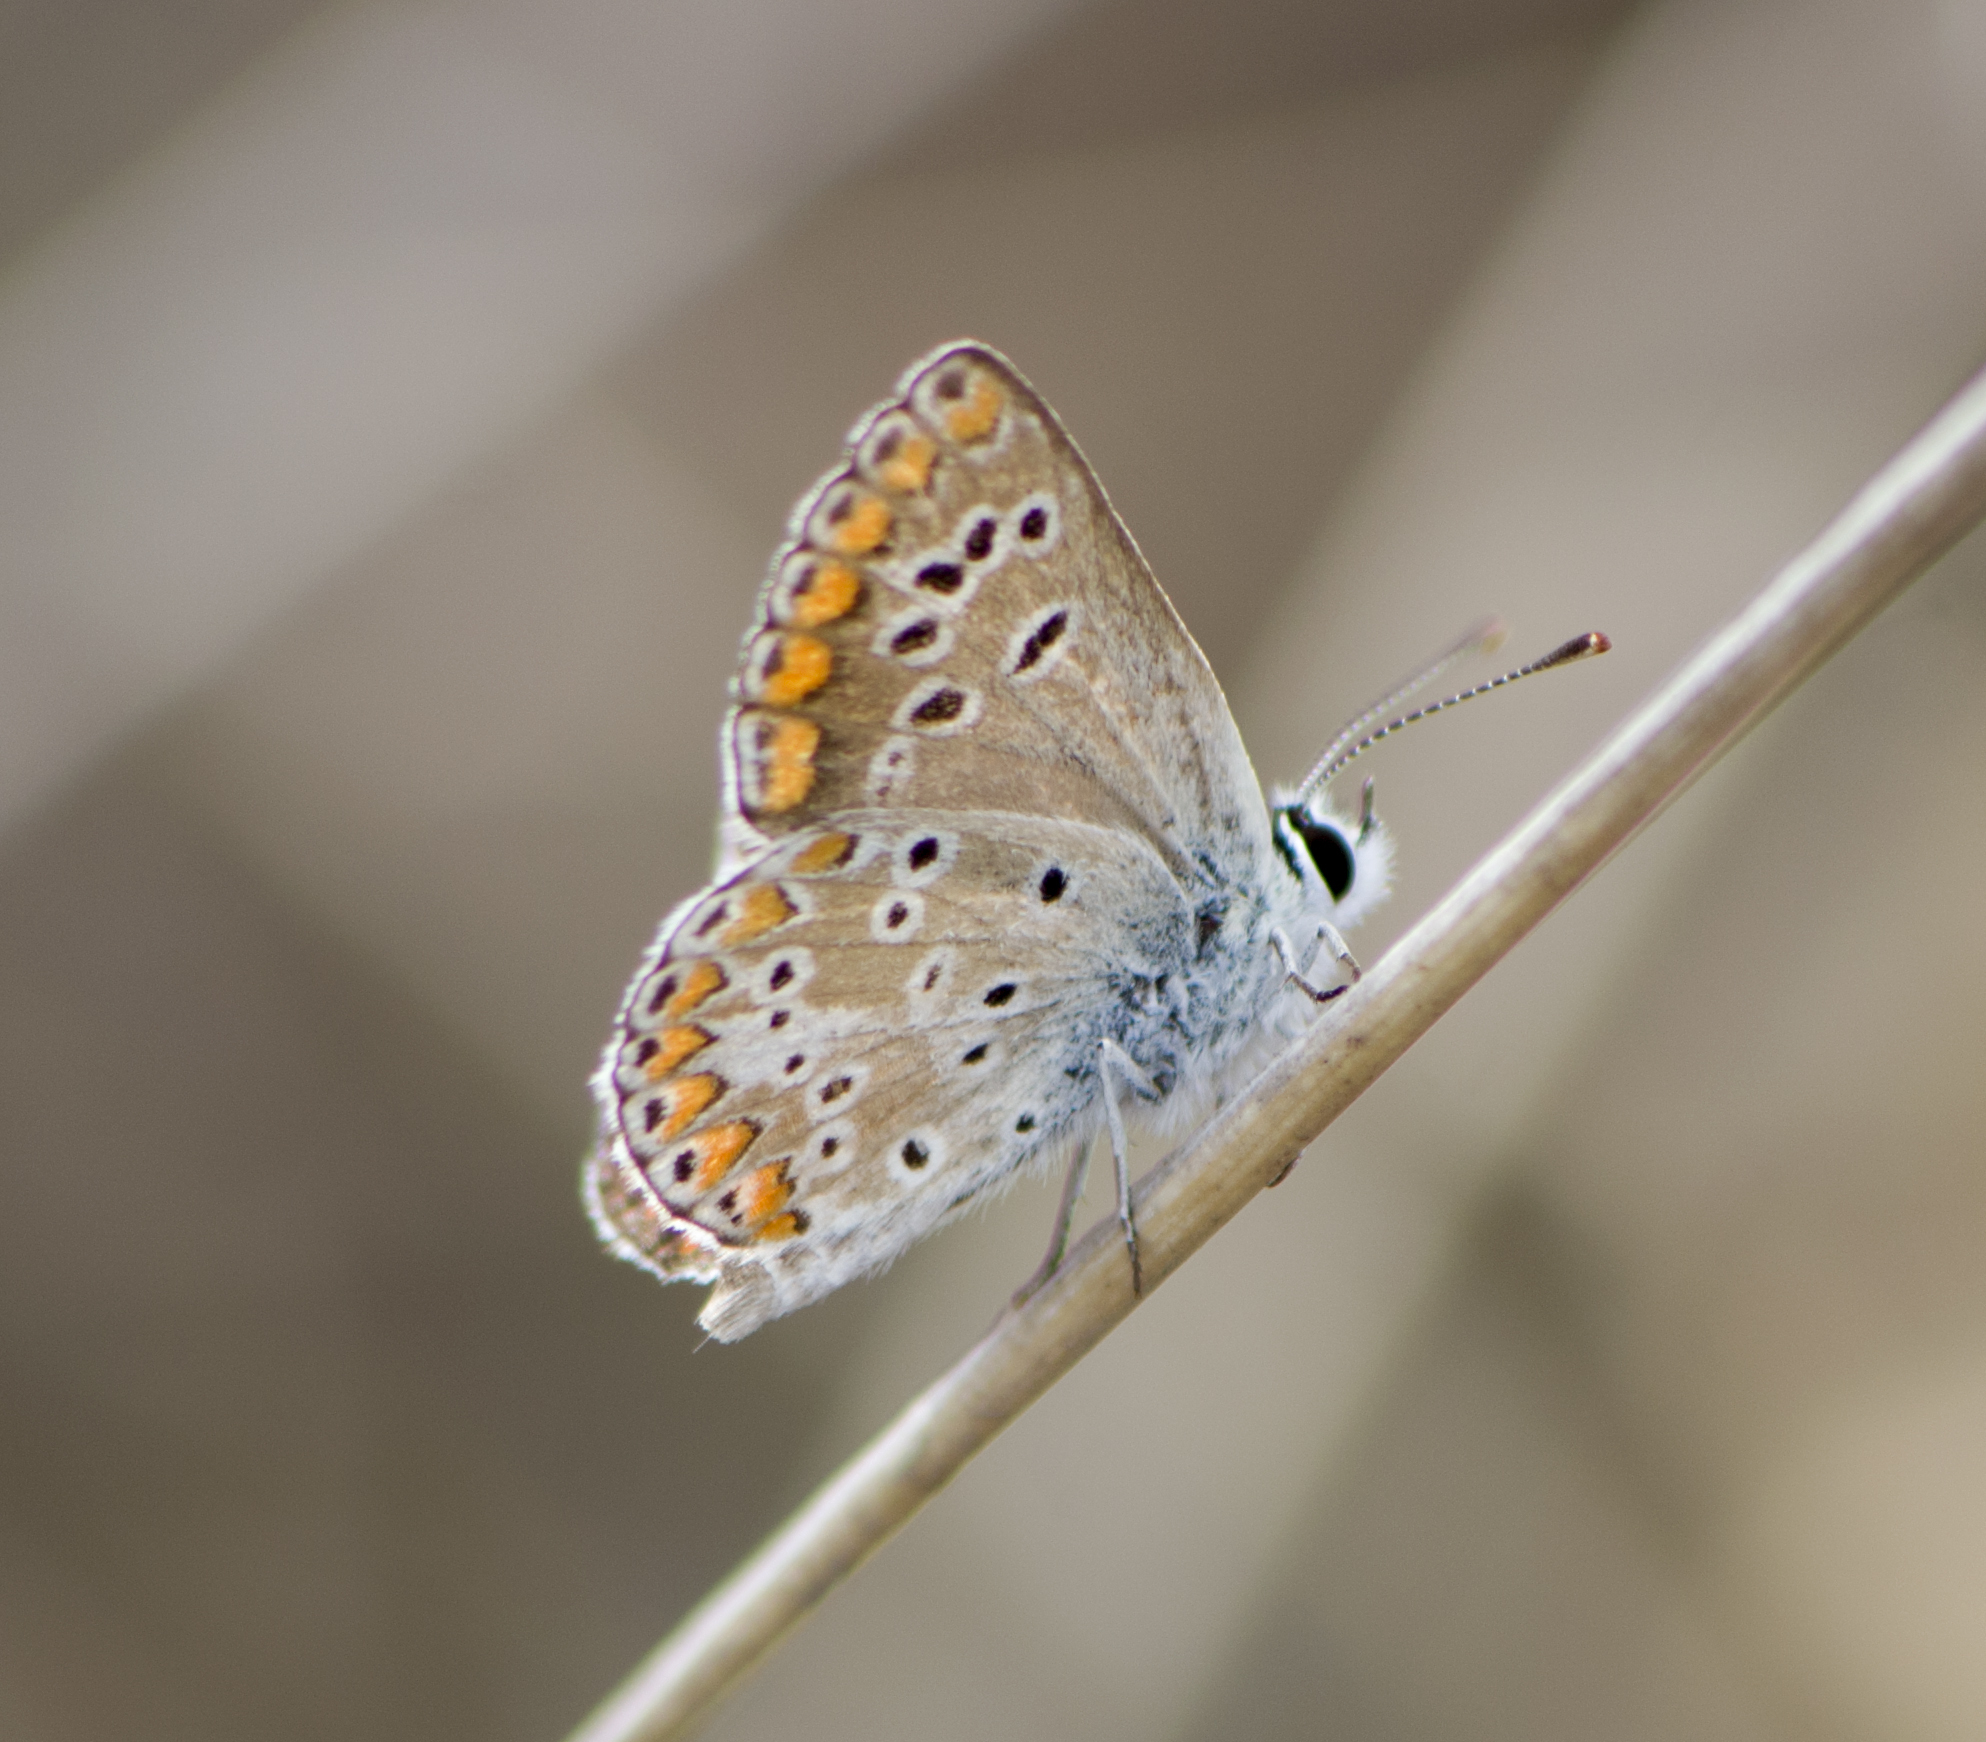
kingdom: Animalia
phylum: Arthropoda
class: Insecta
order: Lepidoptera
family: Lycaenidae
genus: Aricia
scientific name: Aricia agestis
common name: Brown argus
